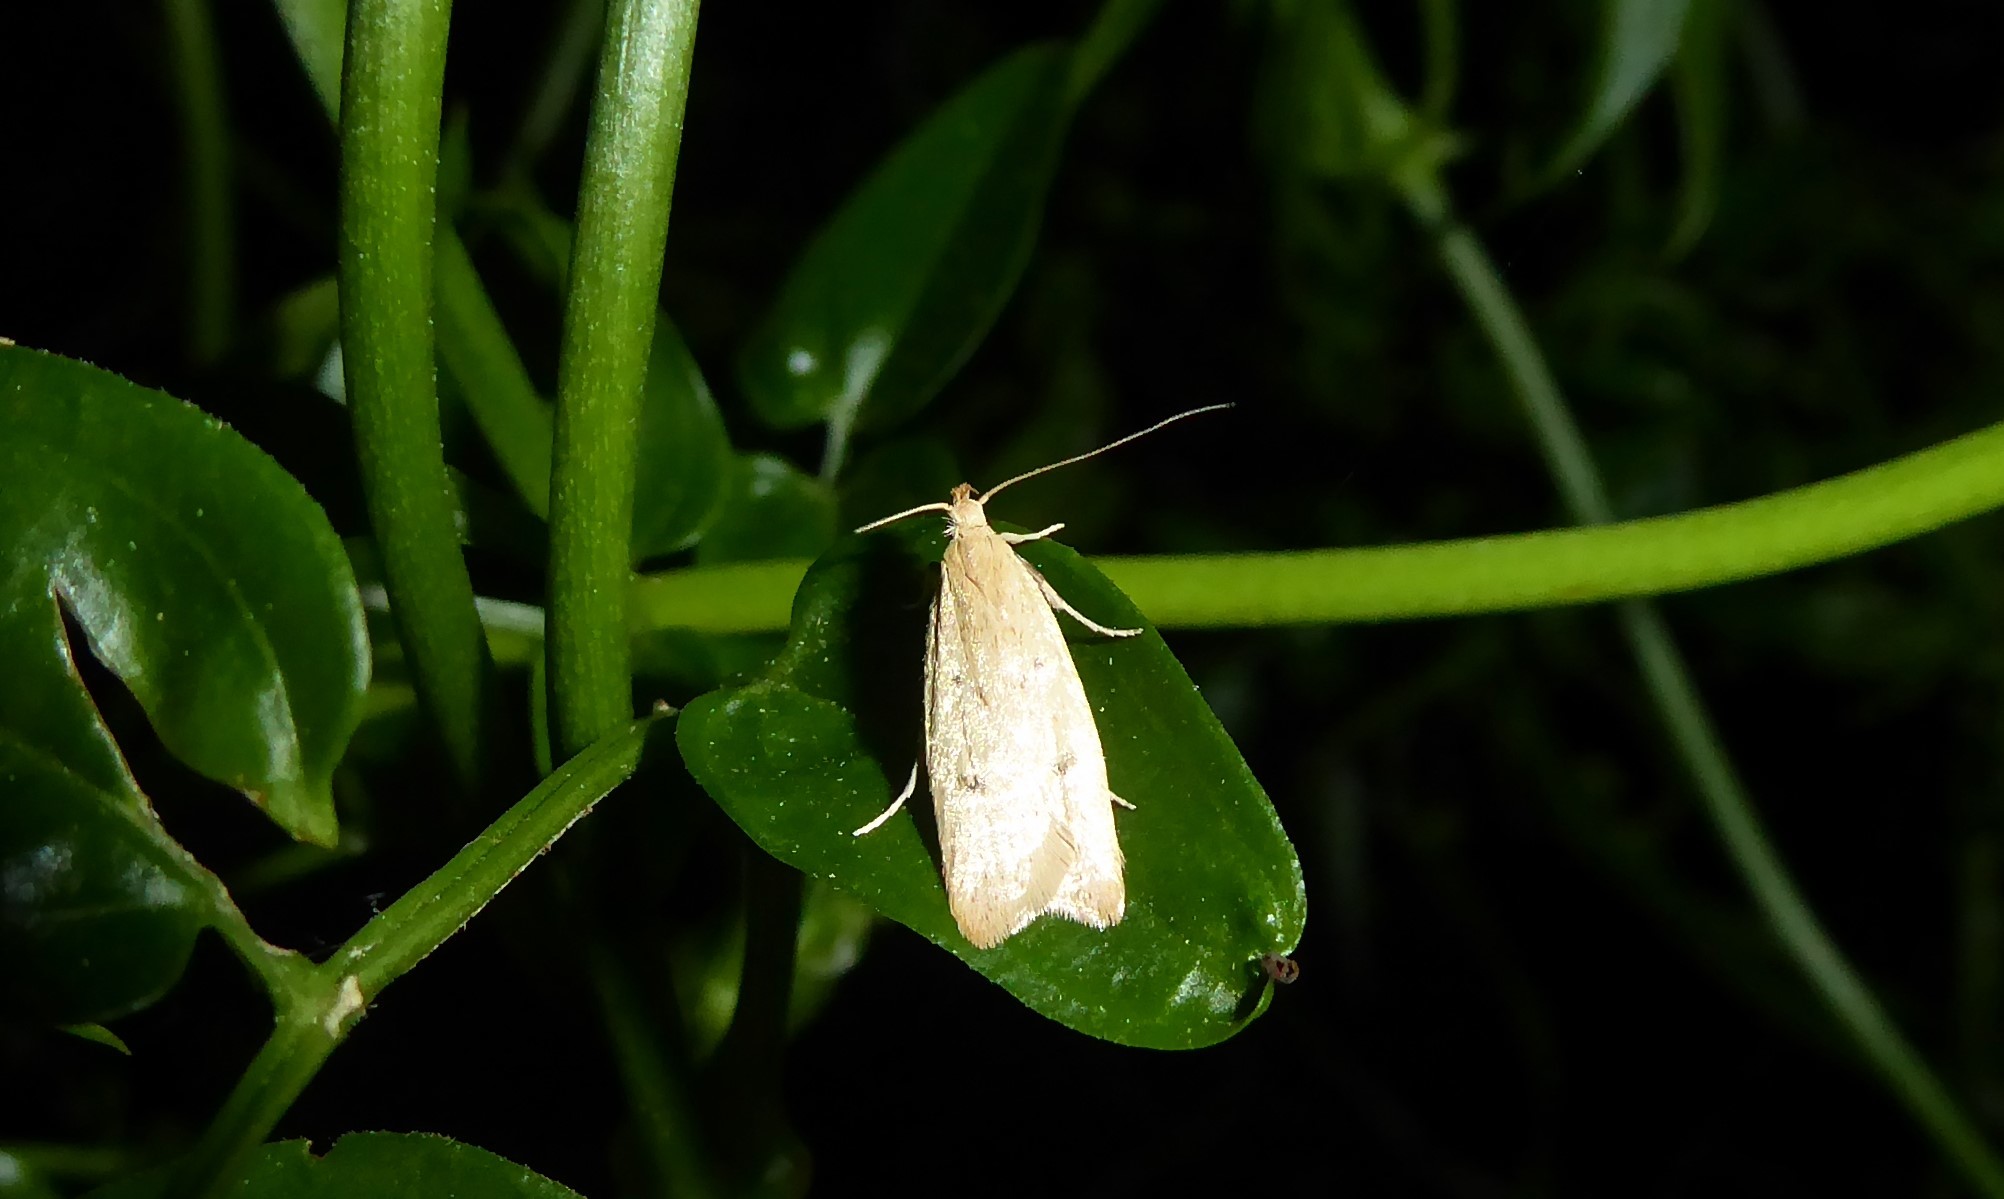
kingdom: Animalia
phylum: Arthropoda
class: Insecta
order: Lepidoptera
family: Oecophoridae
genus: Gymnobathra
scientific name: Gymnobathra sarcoxantha
